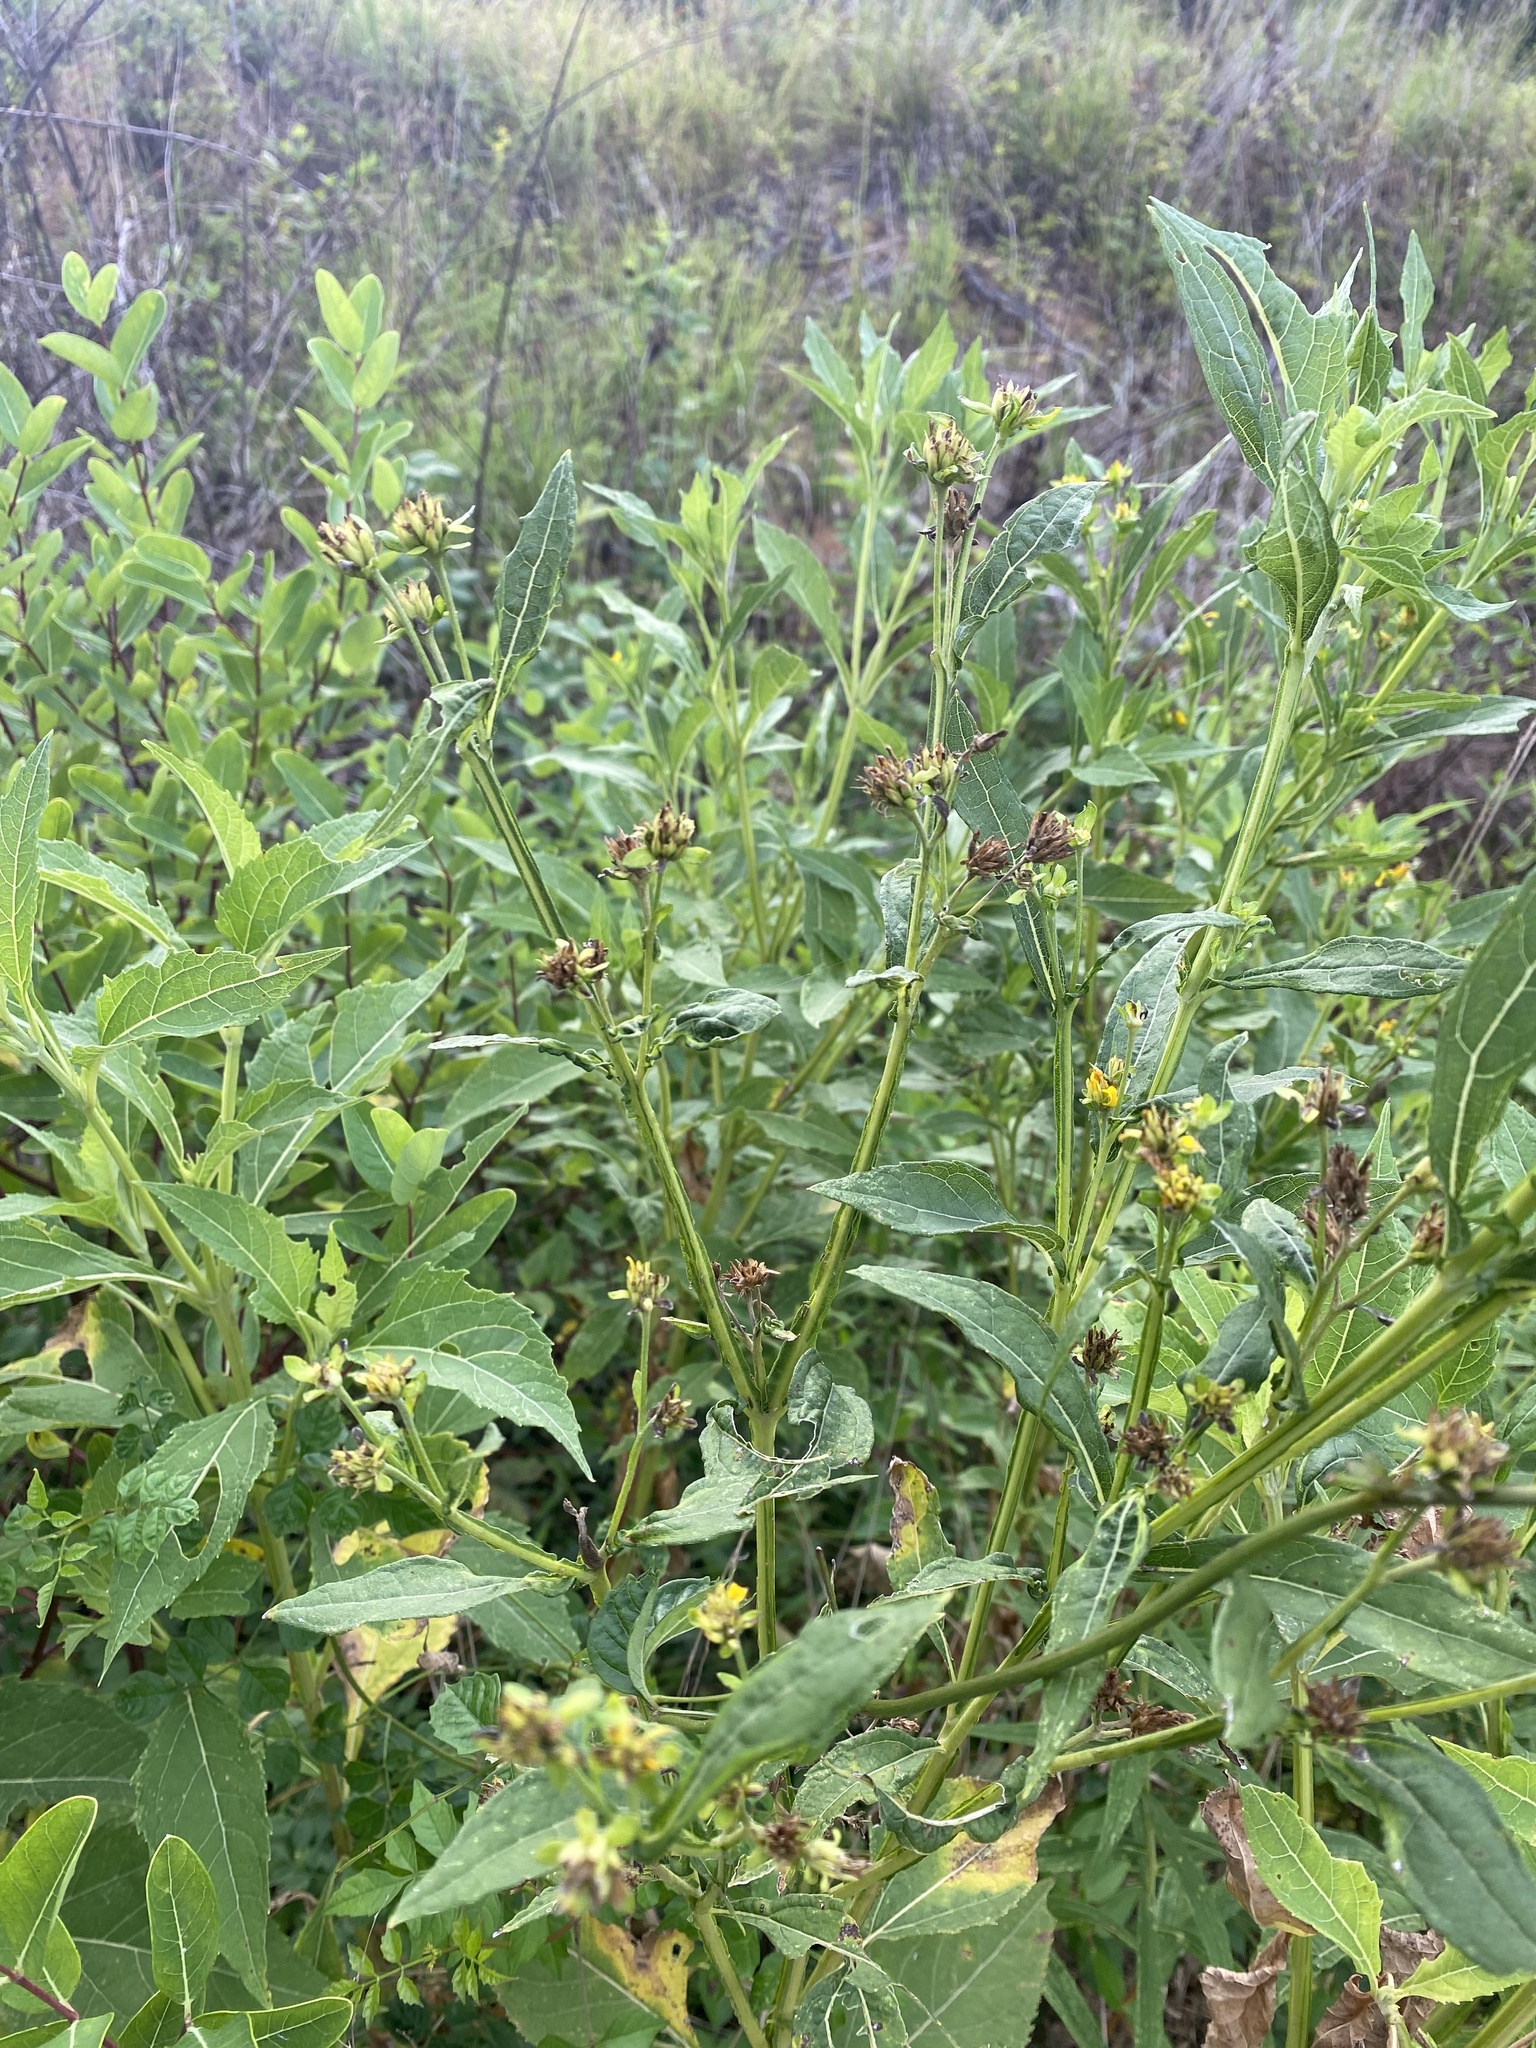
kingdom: Plantae
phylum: Tracheophyta
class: Magnoliopsida
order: Asterales
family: Asteraceae
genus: Verbesina
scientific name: Verbesina occidentalis
